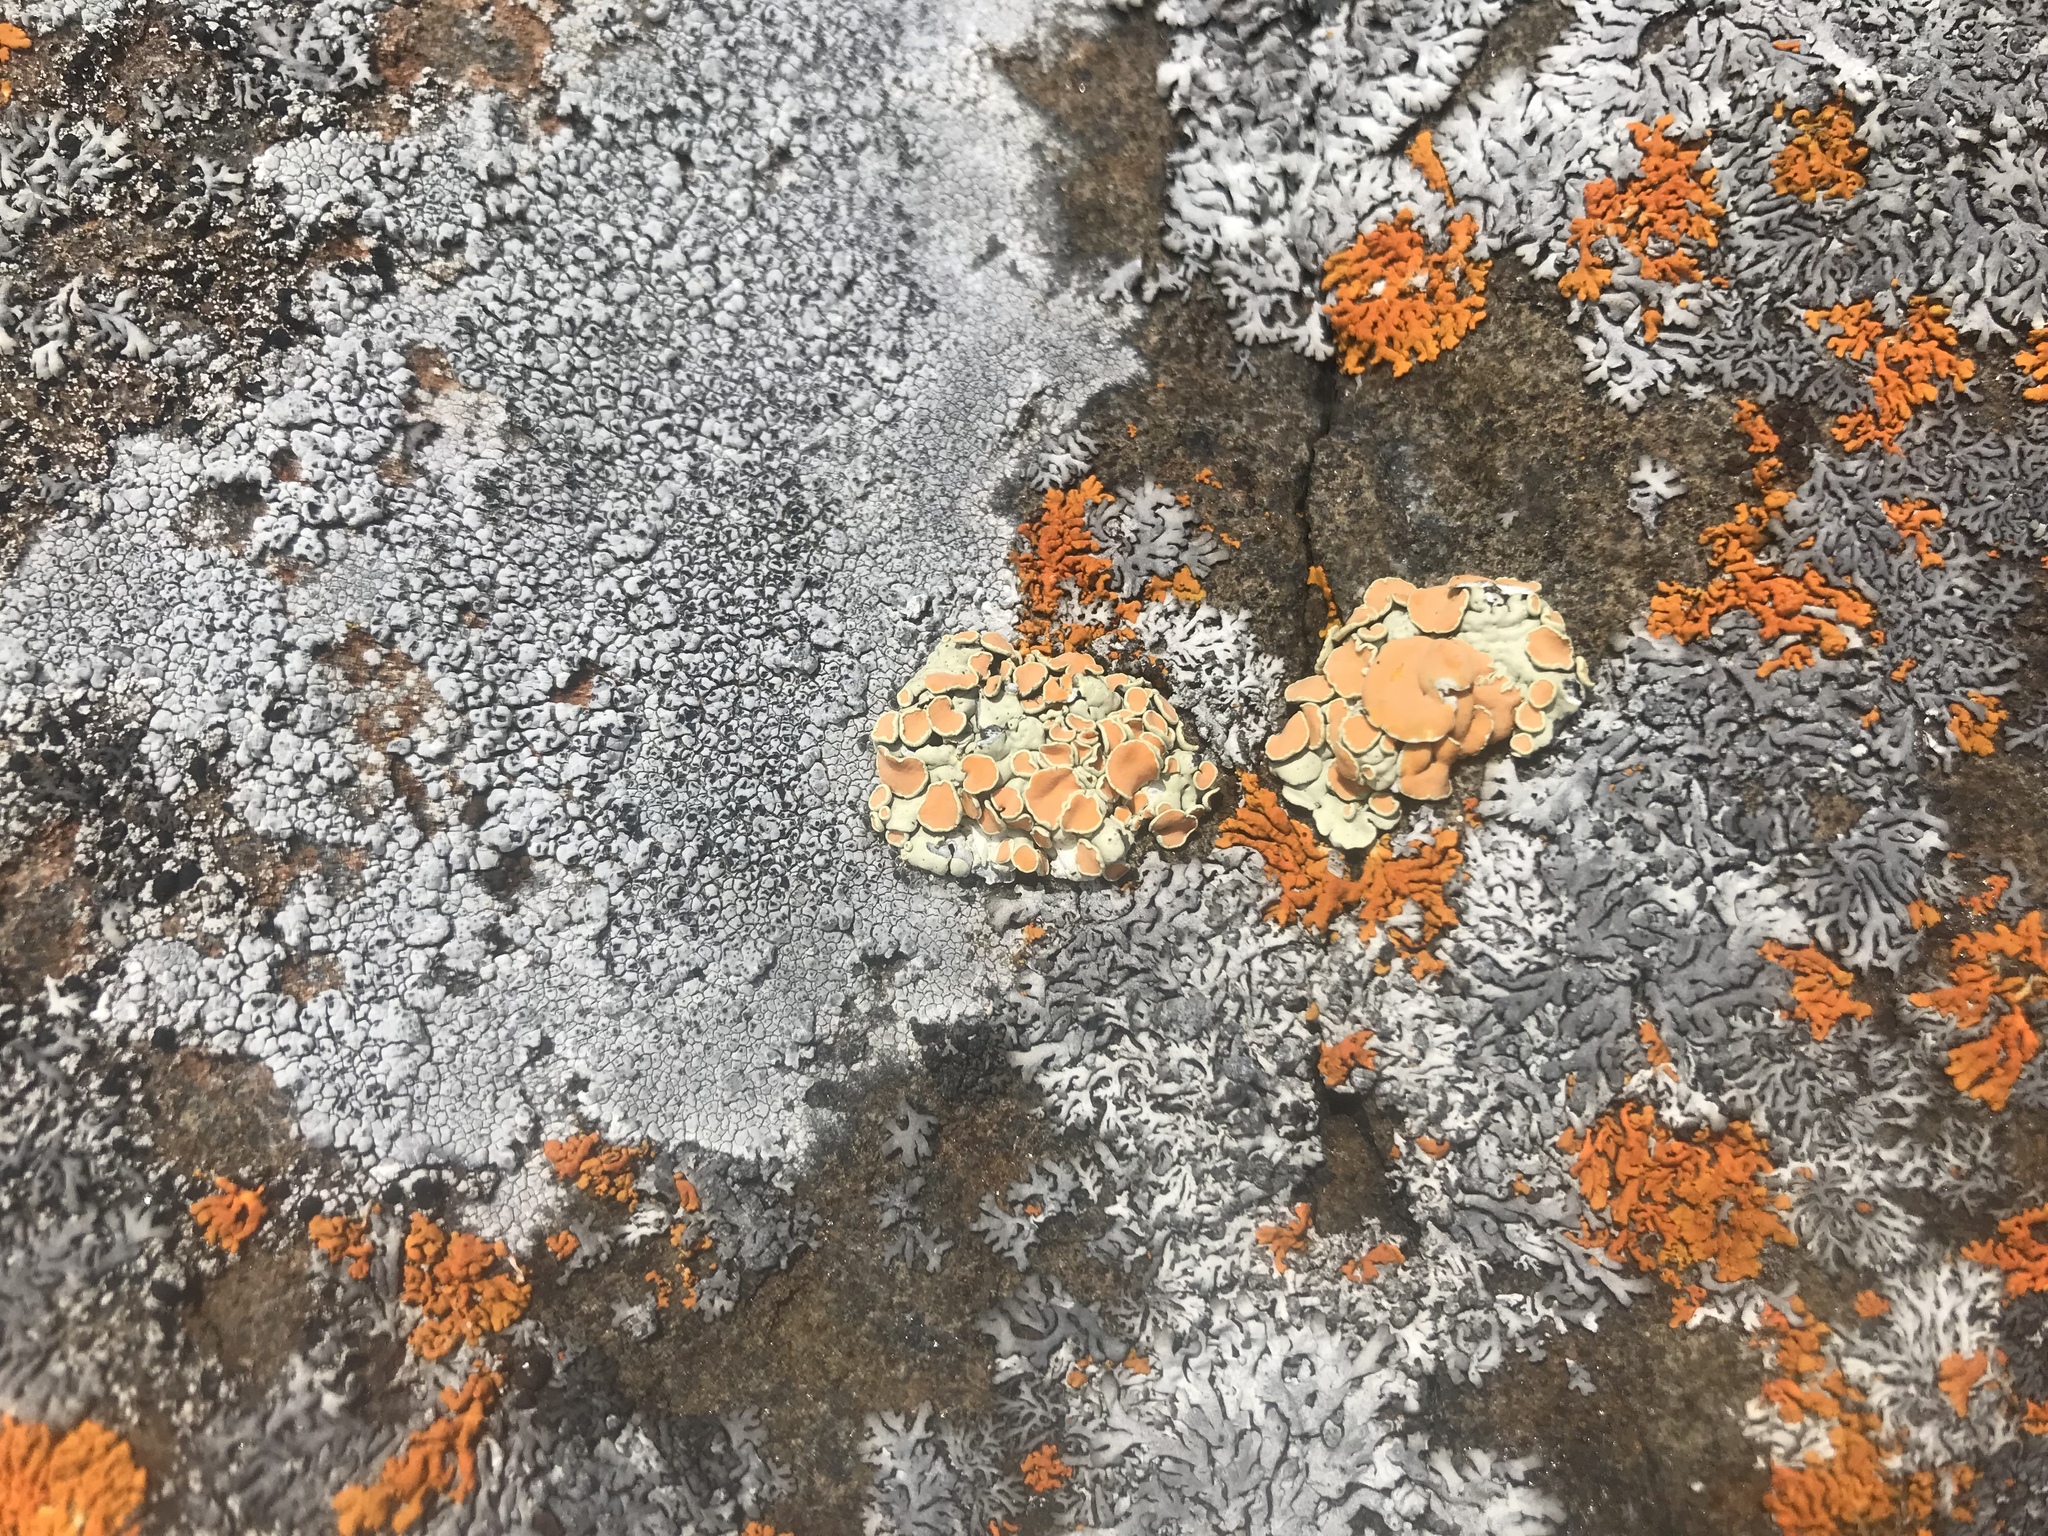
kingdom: Fungi
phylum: Ascomycota
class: Lecanoromycetes
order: Lecanorales
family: Lecanoraceae
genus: Omphalodina
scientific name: Omphalodina chrysoleuca
